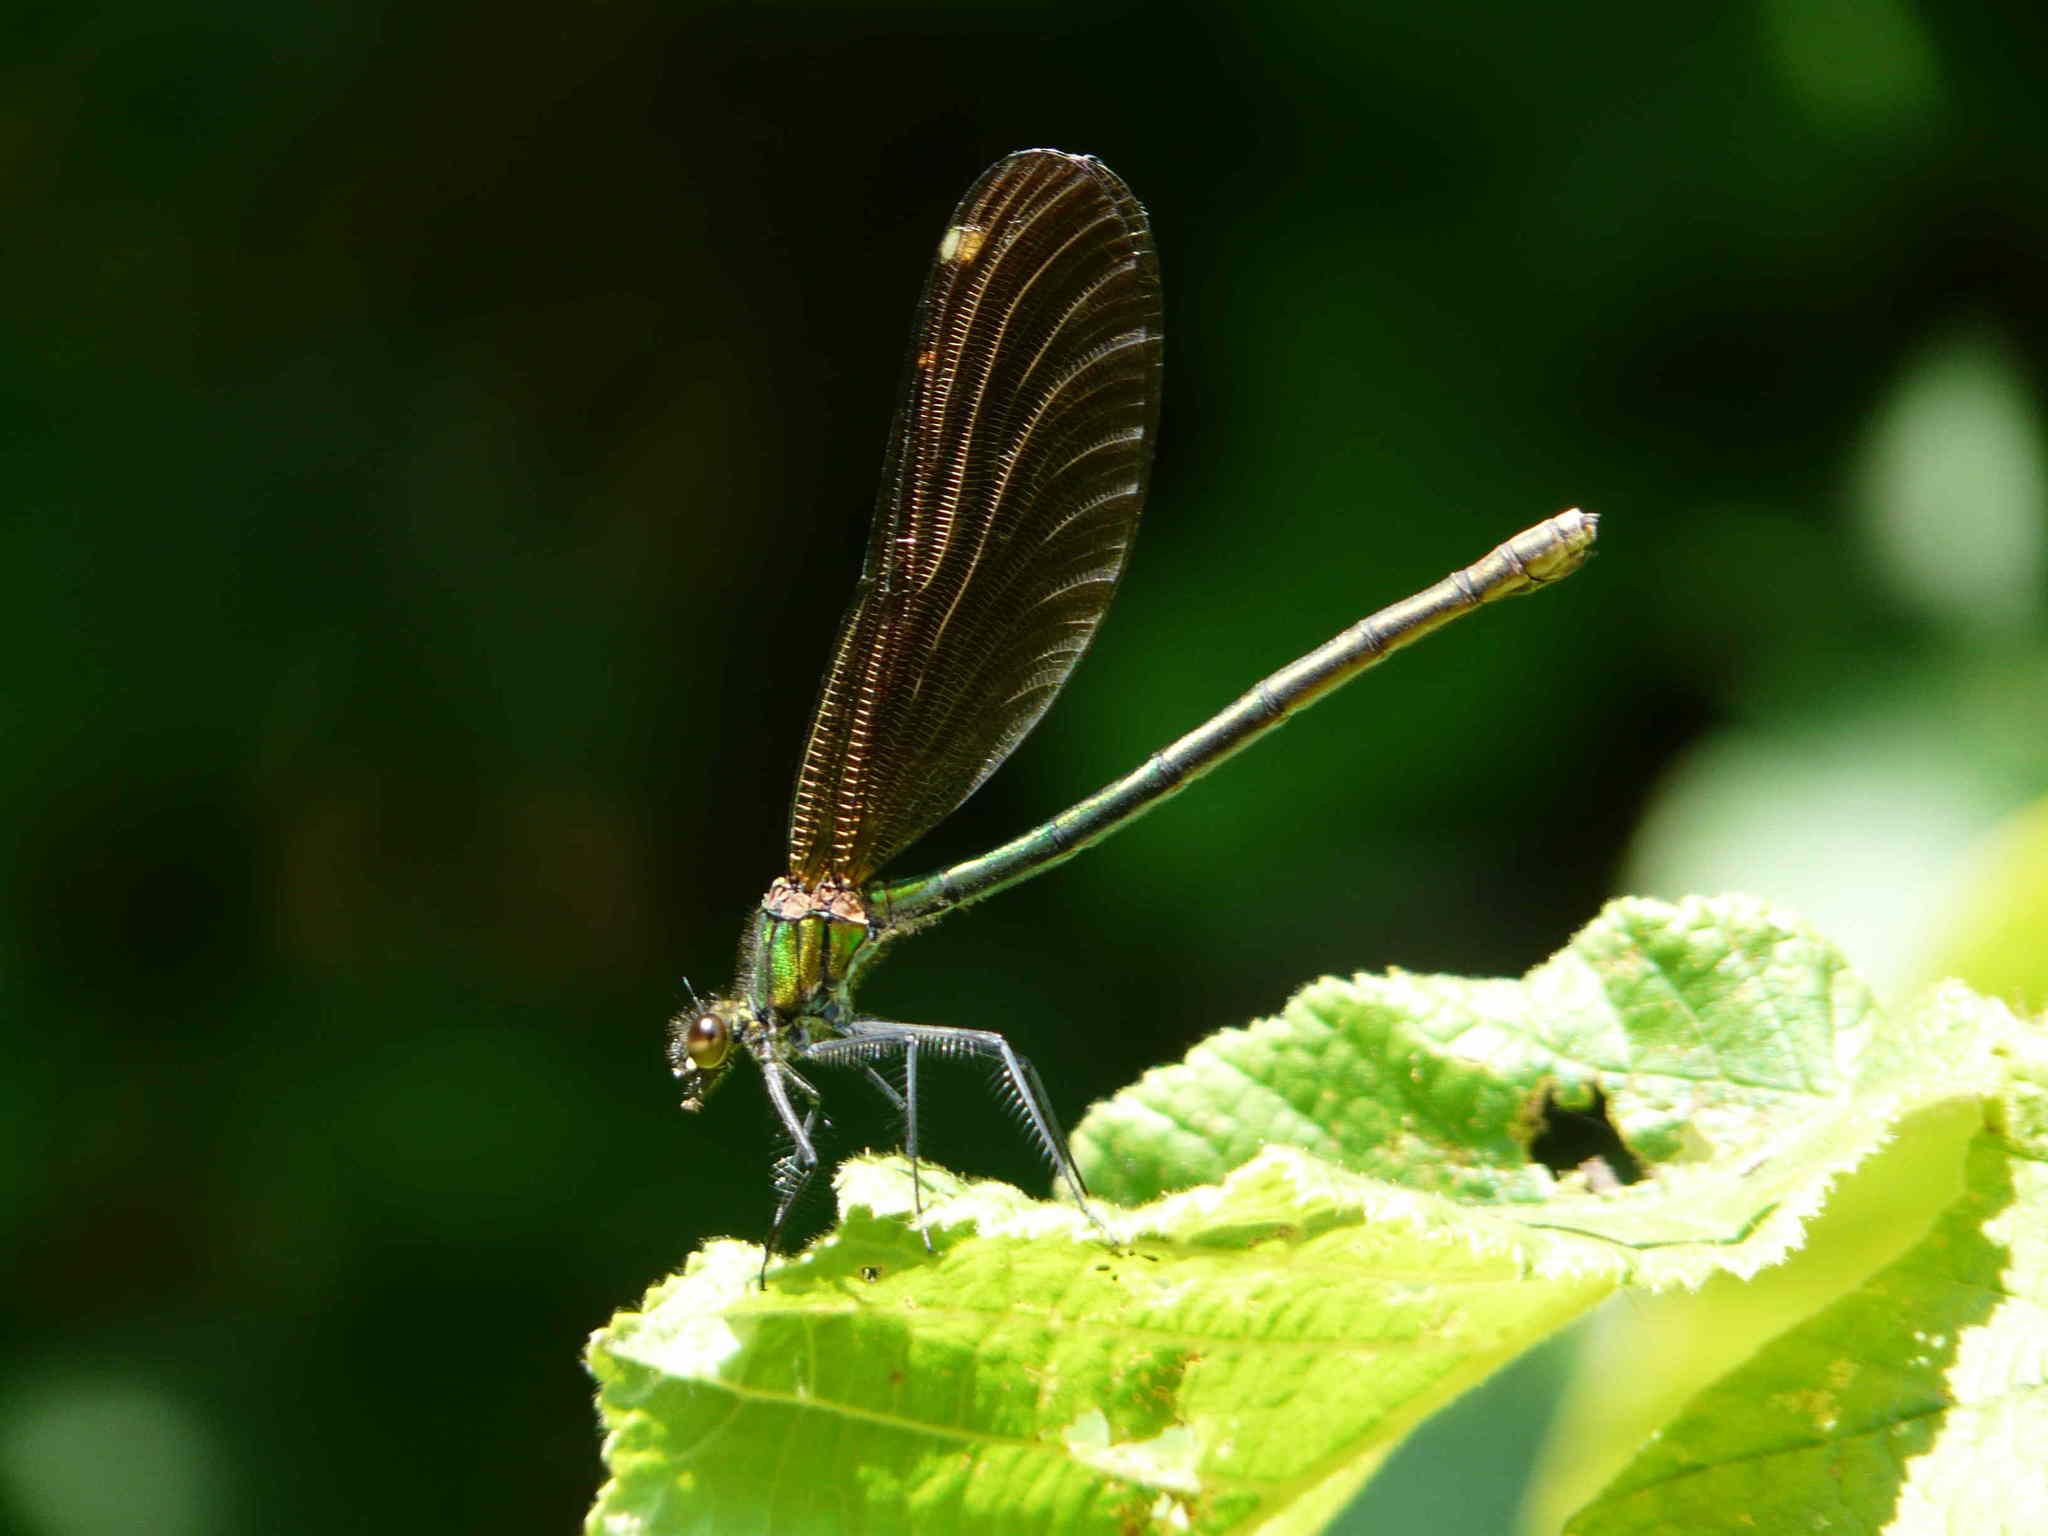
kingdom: Animalia
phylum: Arthropoda
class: Insecta
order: Odonata
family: Calopterygidae
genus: Calopteryx
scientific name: Calopteryx virgo
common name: Beautiful demoiselle
